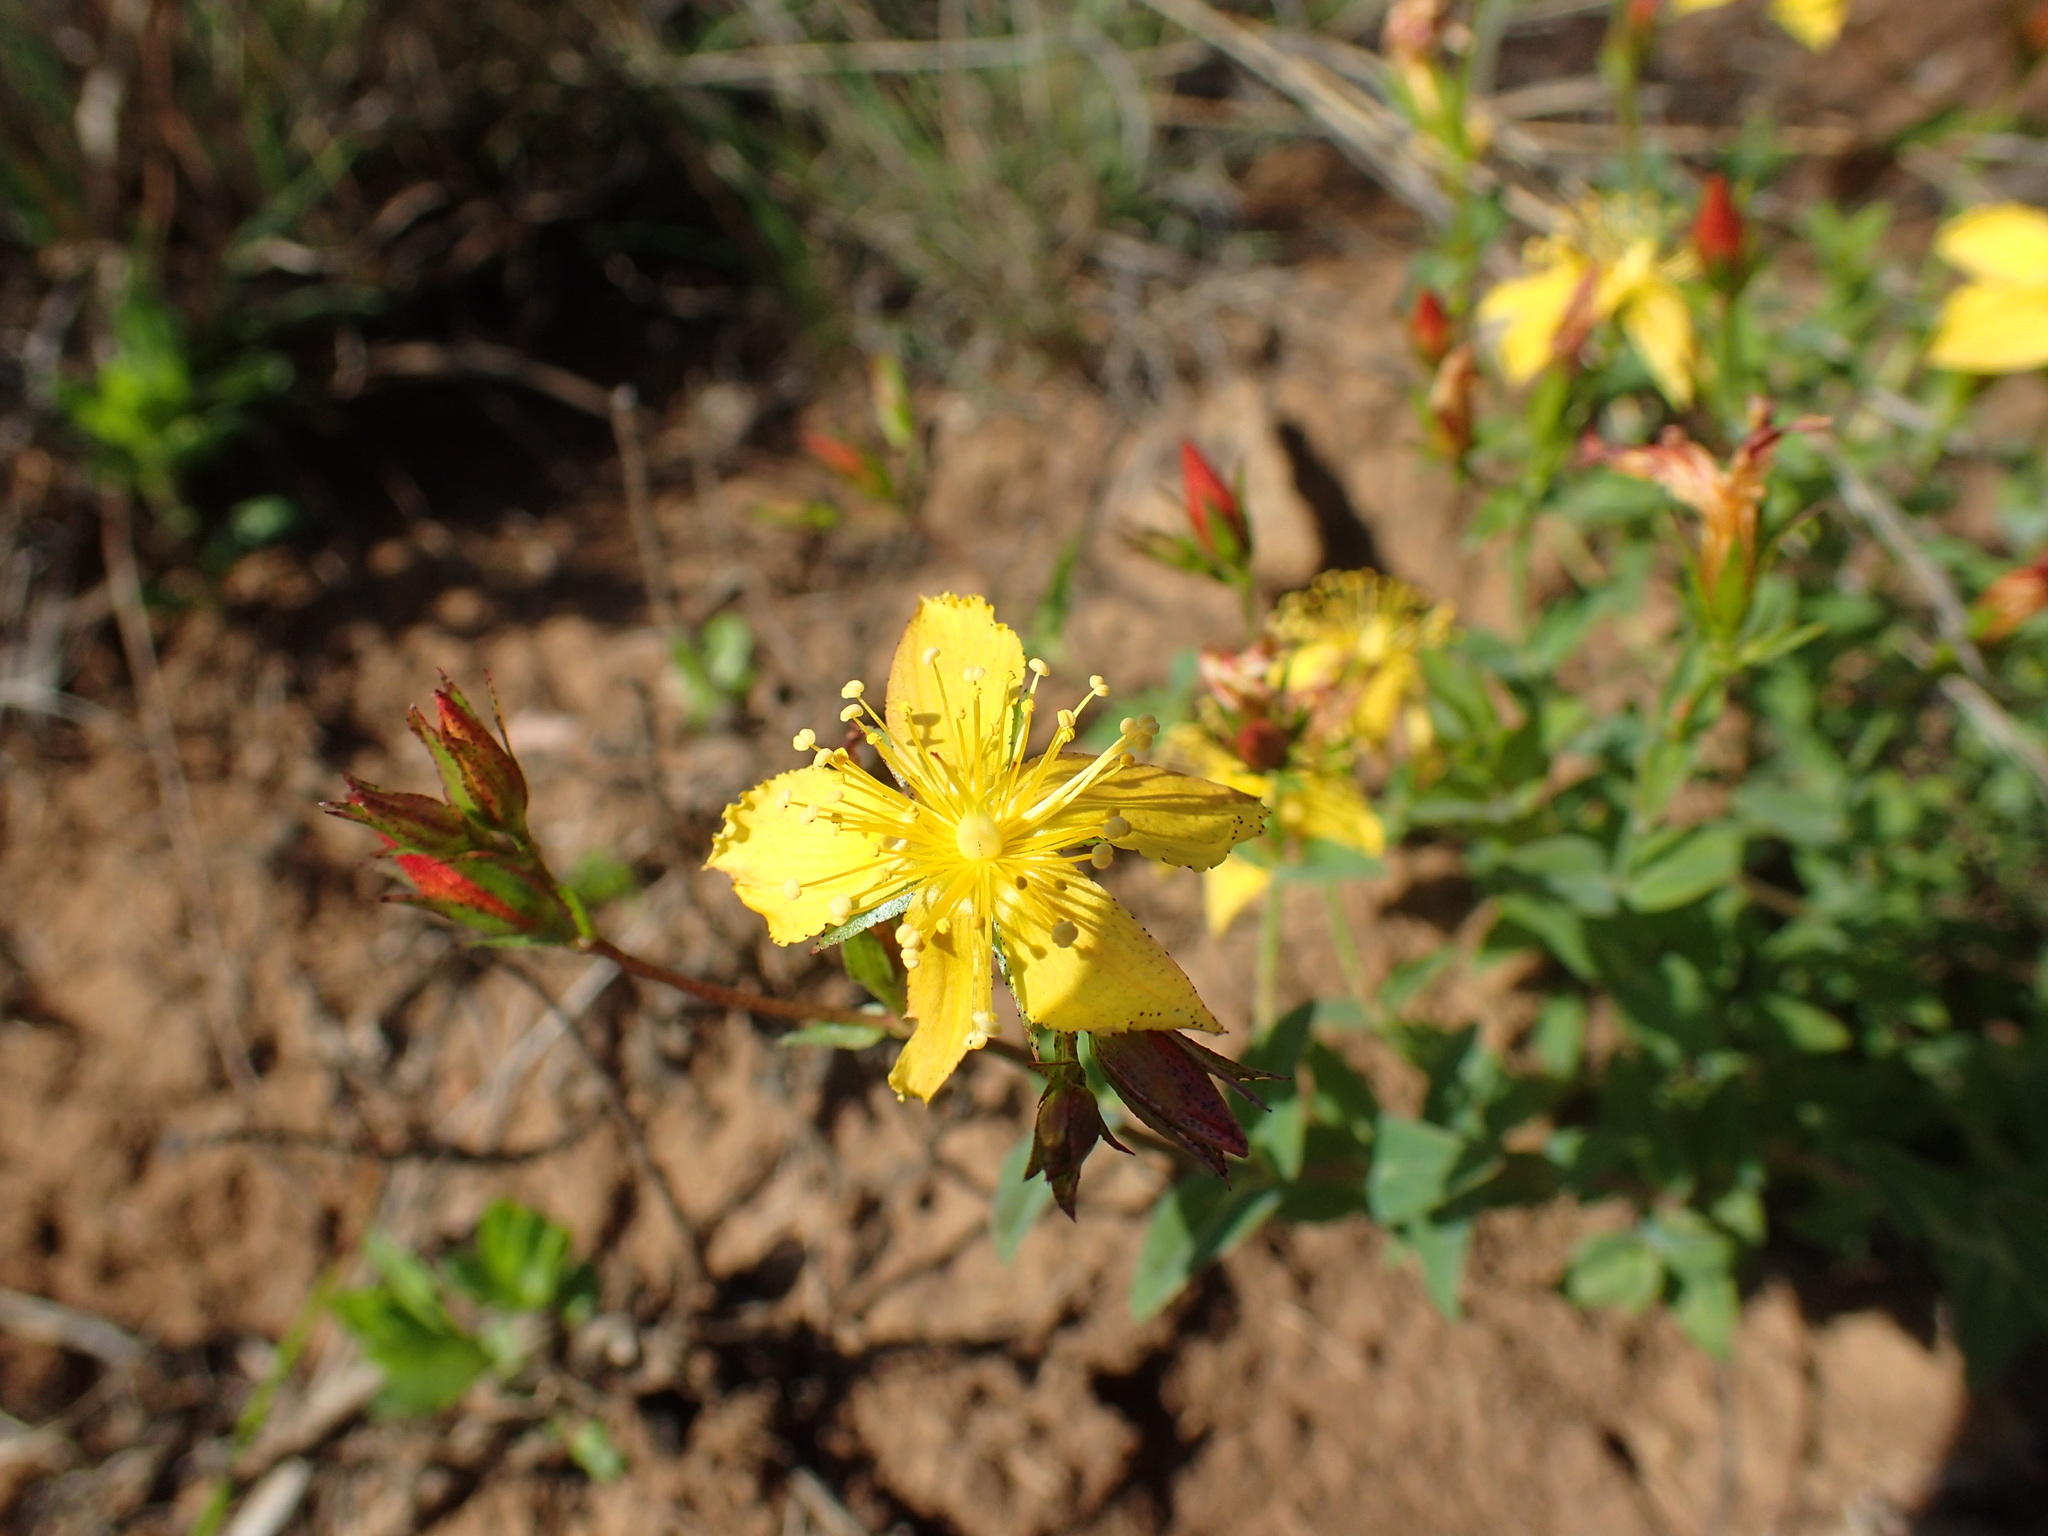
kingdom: Plantae
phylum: Tracheophyta
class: Magnoliopsida
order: Malpighiales
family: Hypericaceae
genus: Hypericum
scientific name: Hypericum aethiopicum
